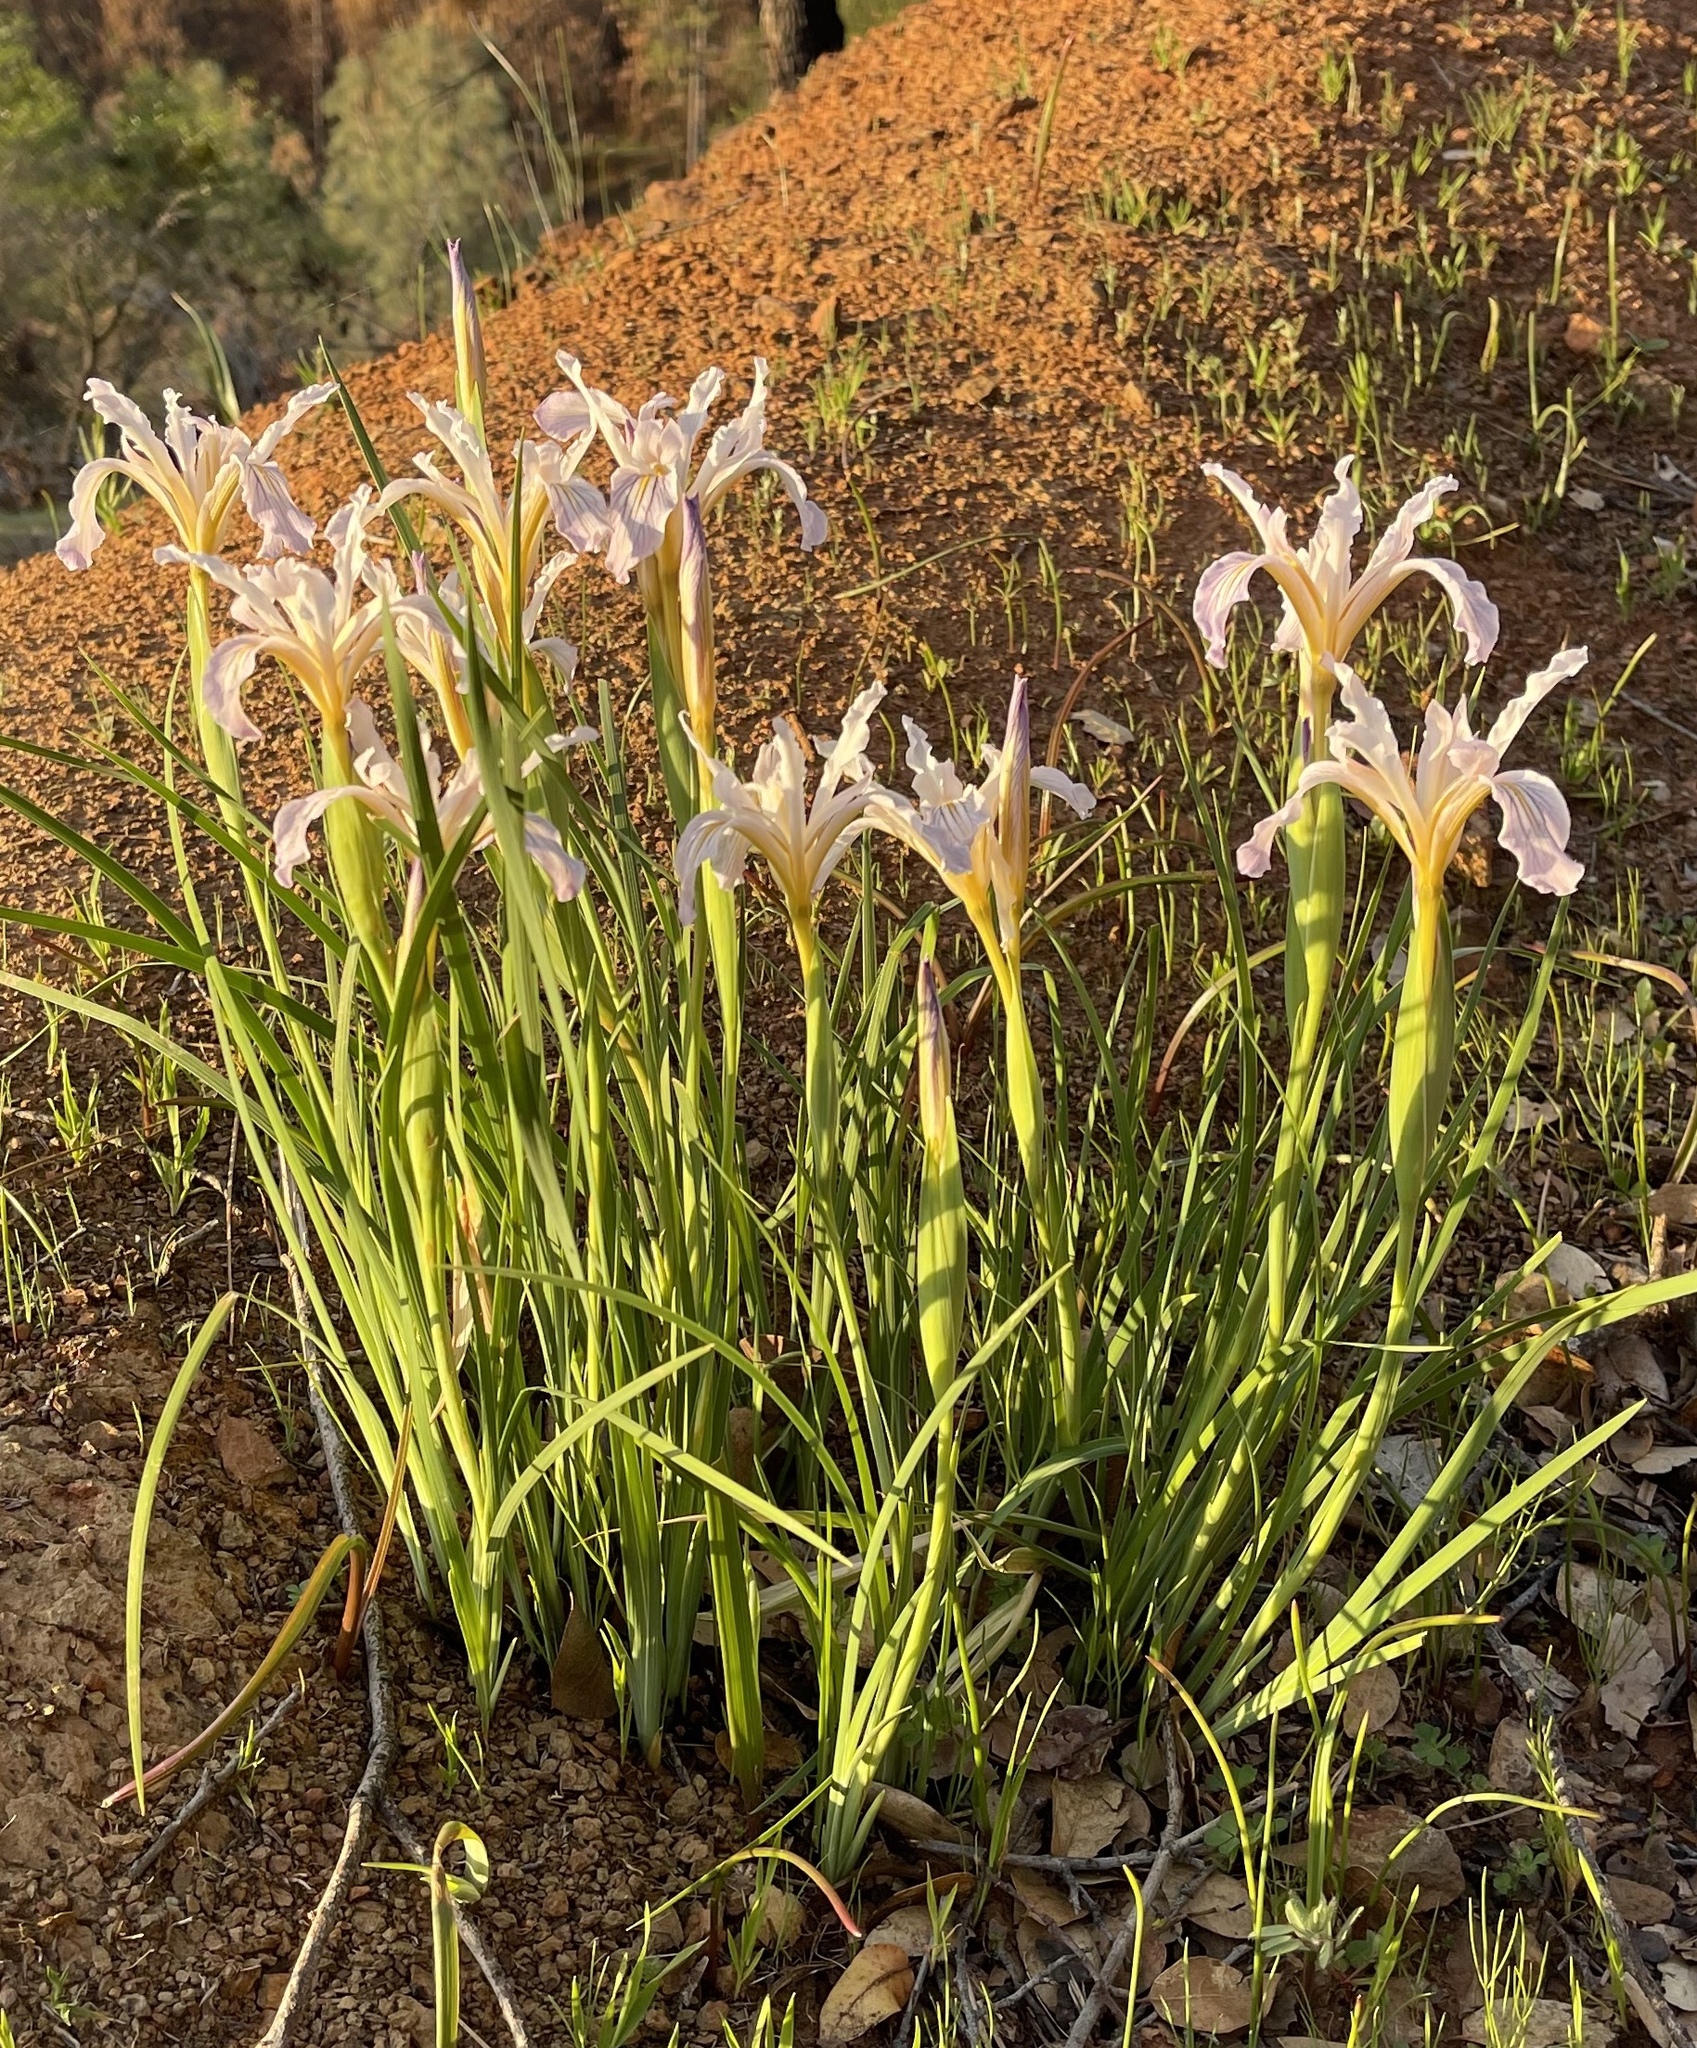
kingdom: Plantae
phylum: Tracheophyta
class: Liliopsida
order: Asparagales
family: Iridaceae
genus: Iris
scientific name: Iris macrosiphon
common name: Ground iris
